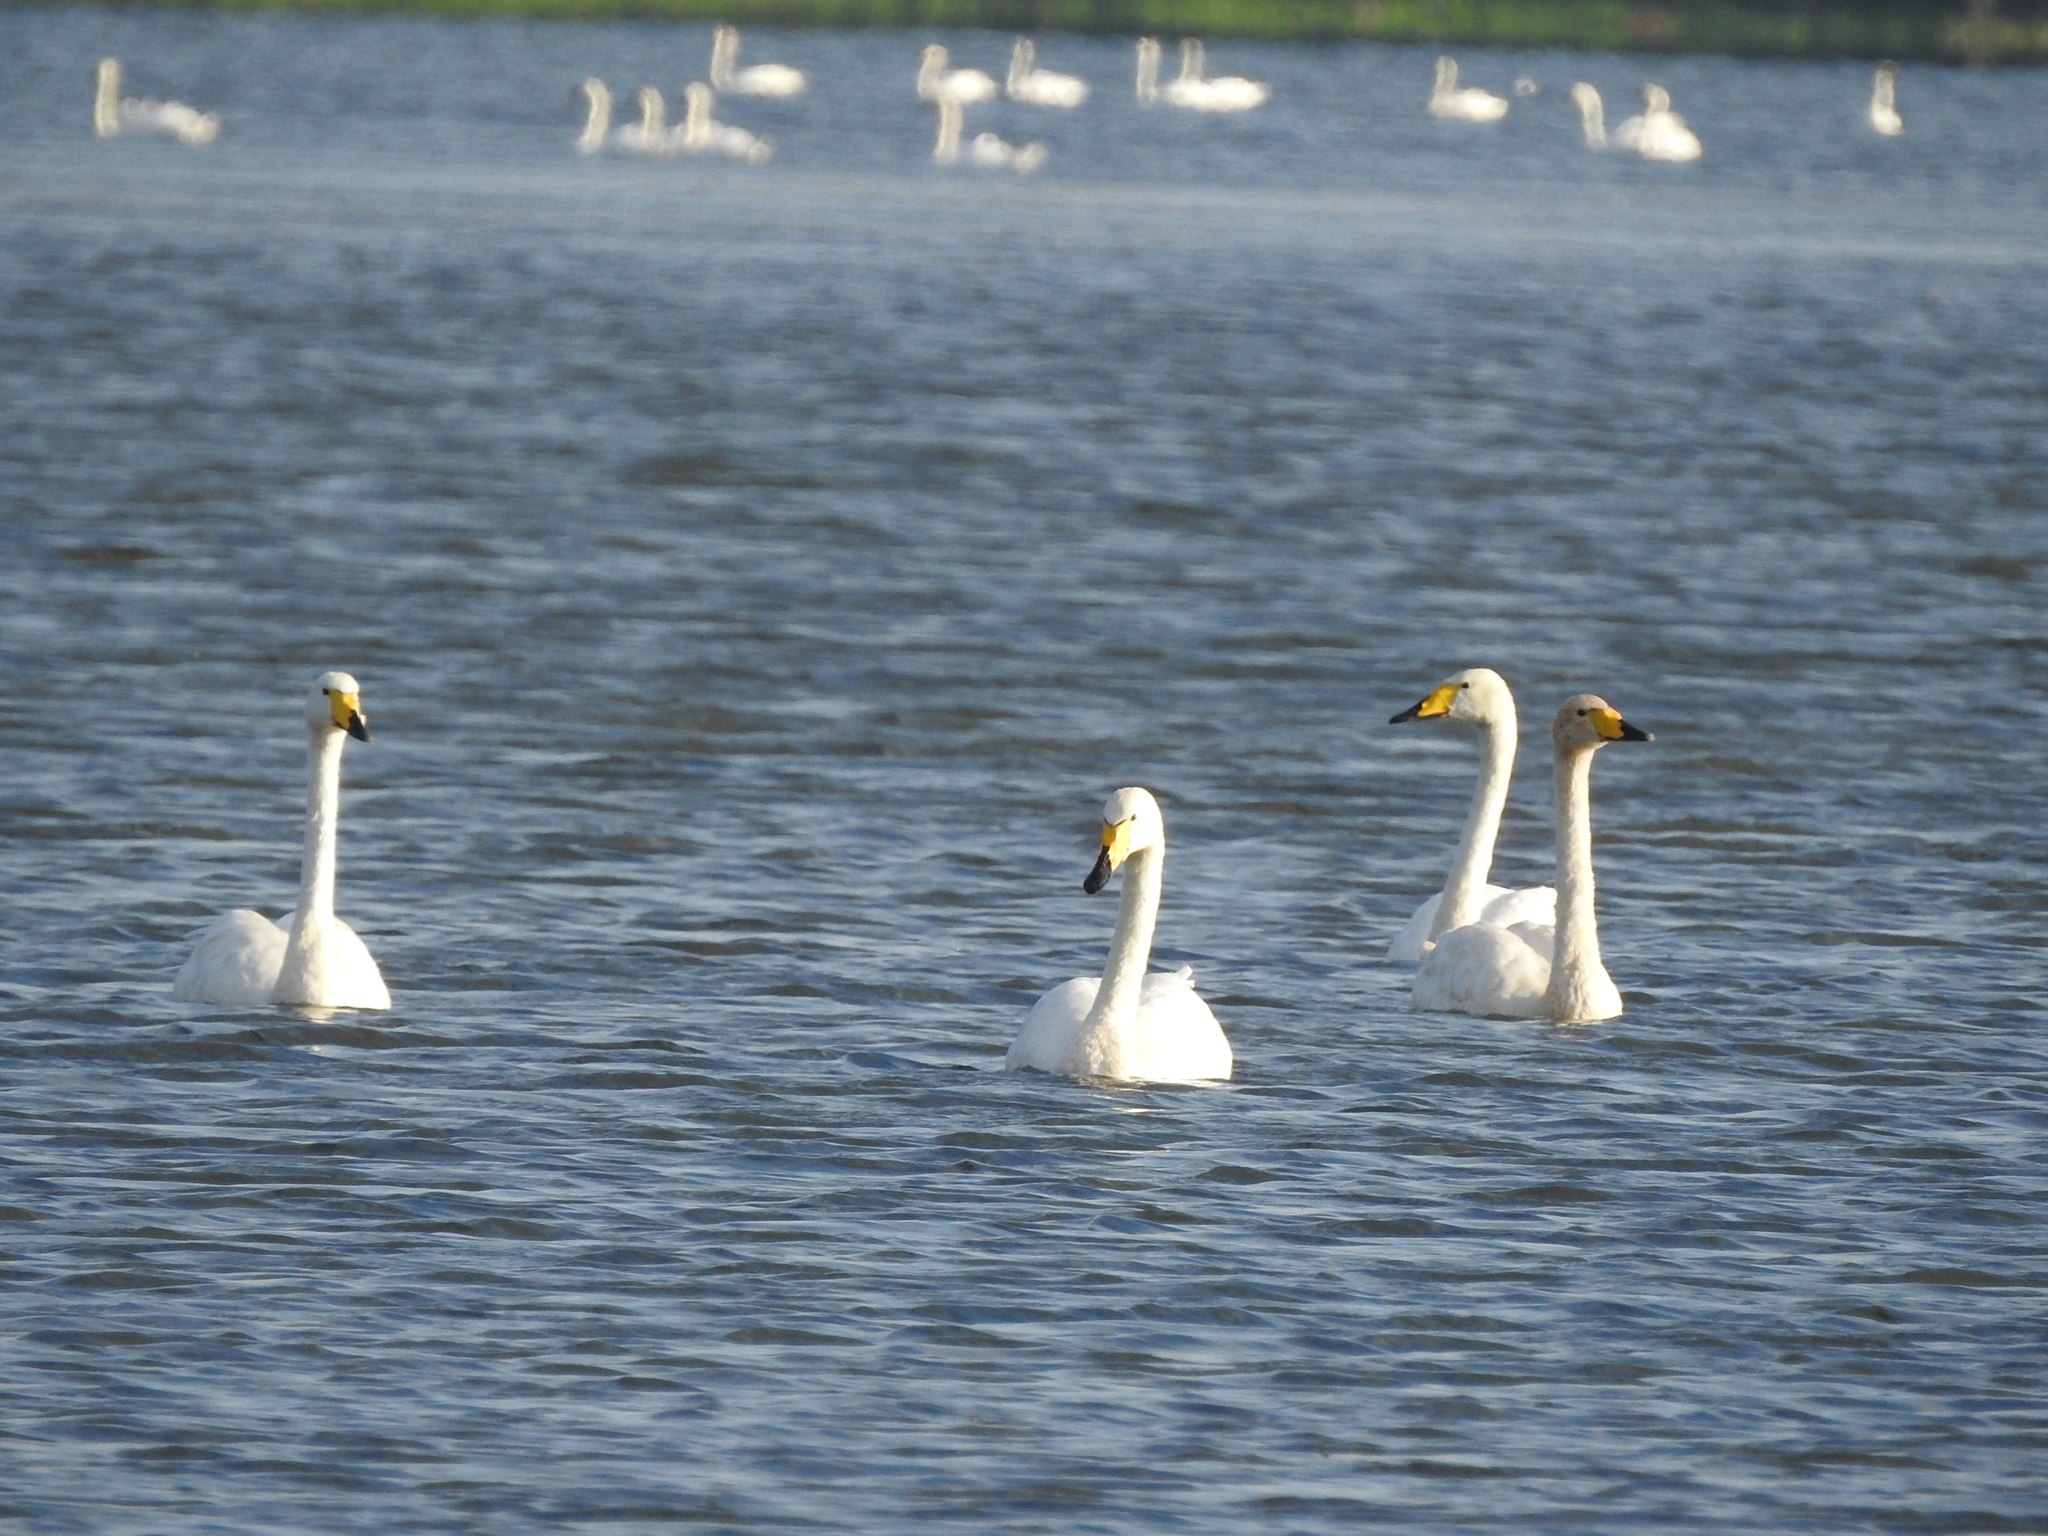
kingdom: Animalia
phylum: Chordata
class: Aves
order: Anseriformes
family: Anatidae
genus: Cygnus
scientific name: Cygnus cygnus
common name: Whooper swan
